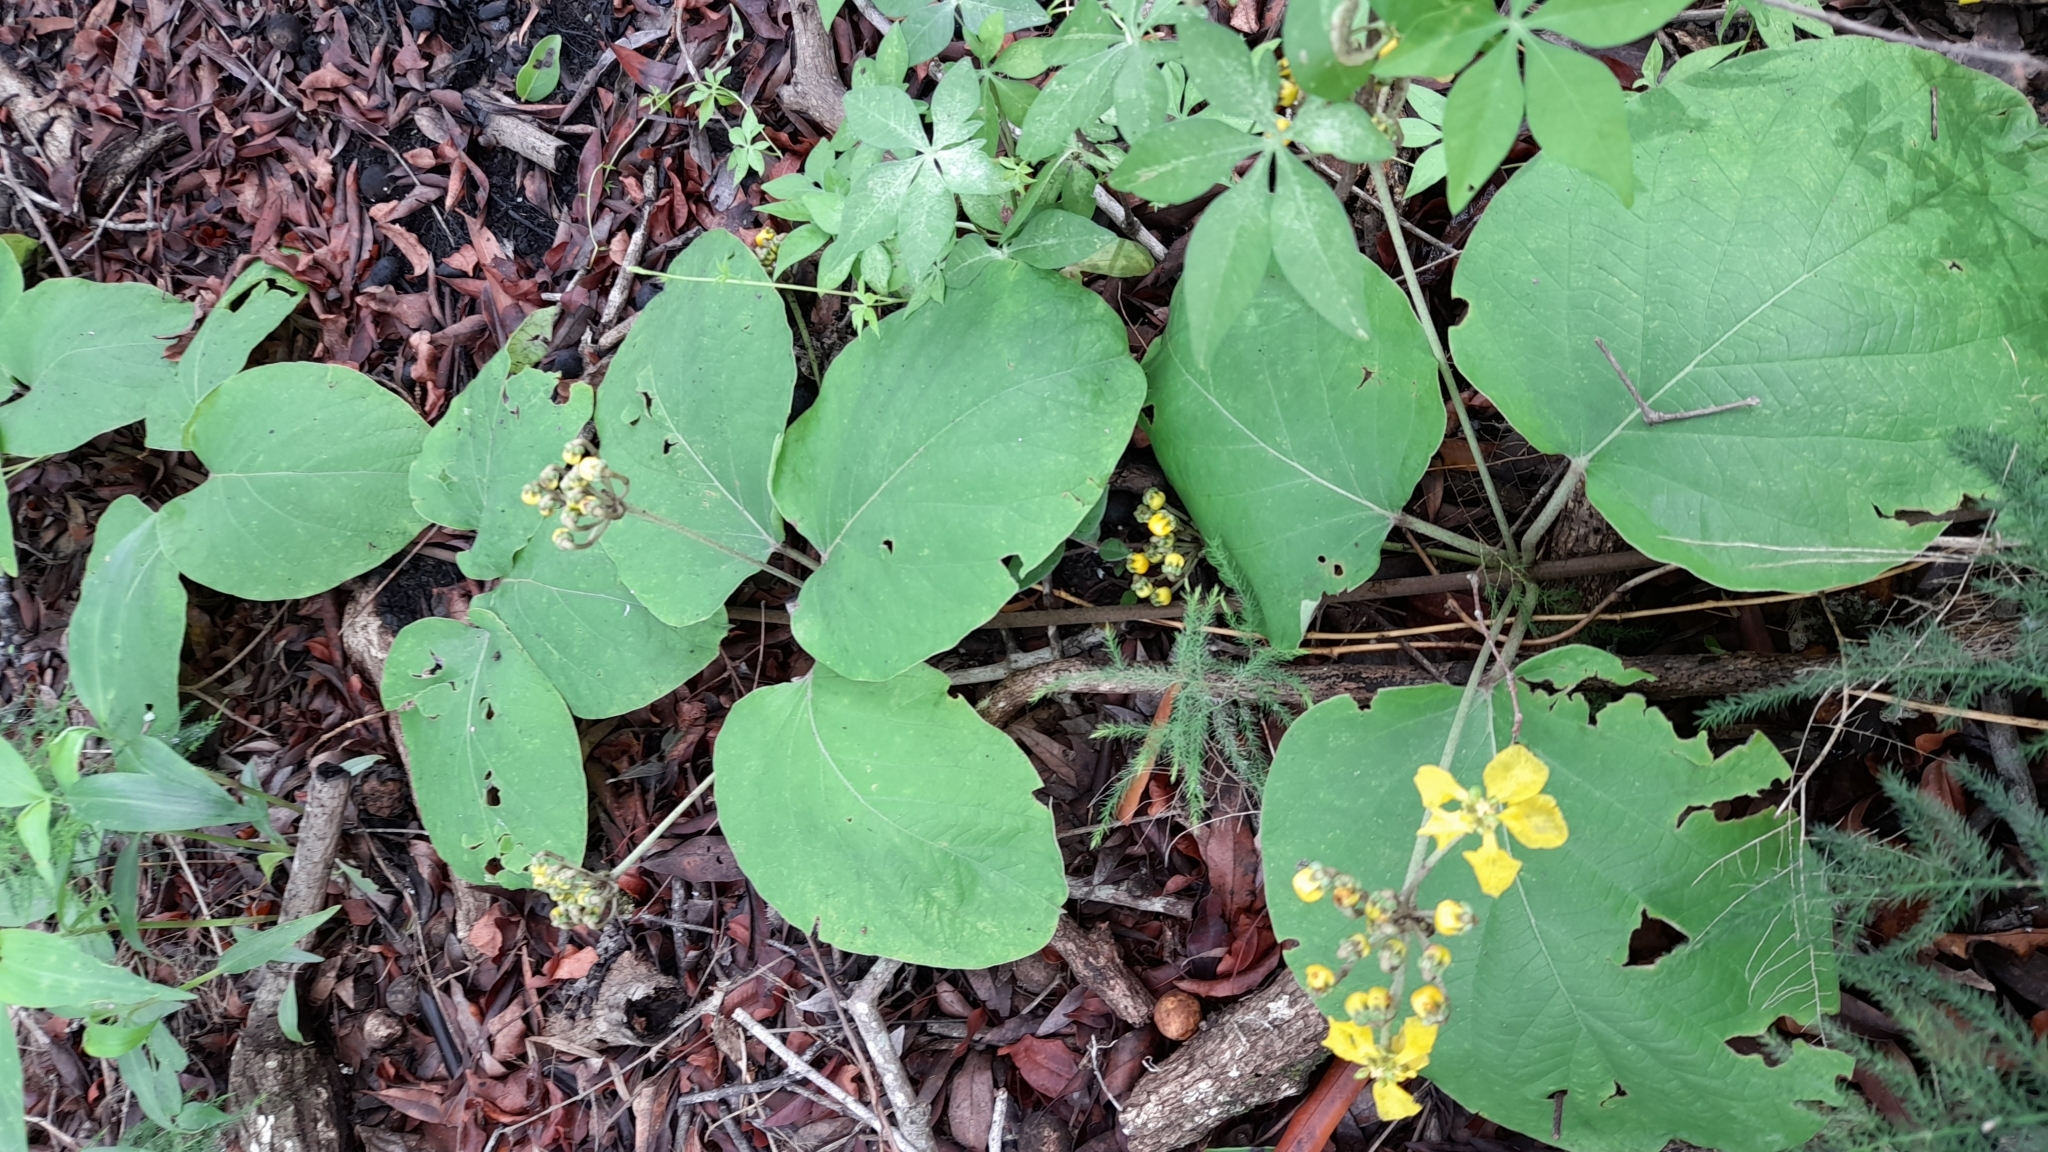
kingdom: Plantae
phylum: Tracheophyta
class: Magnoliopsida
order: Malpighiales
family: Malpighiaceae
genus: Stigmaphyllon
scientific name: Stigmaphyllon bonariense
